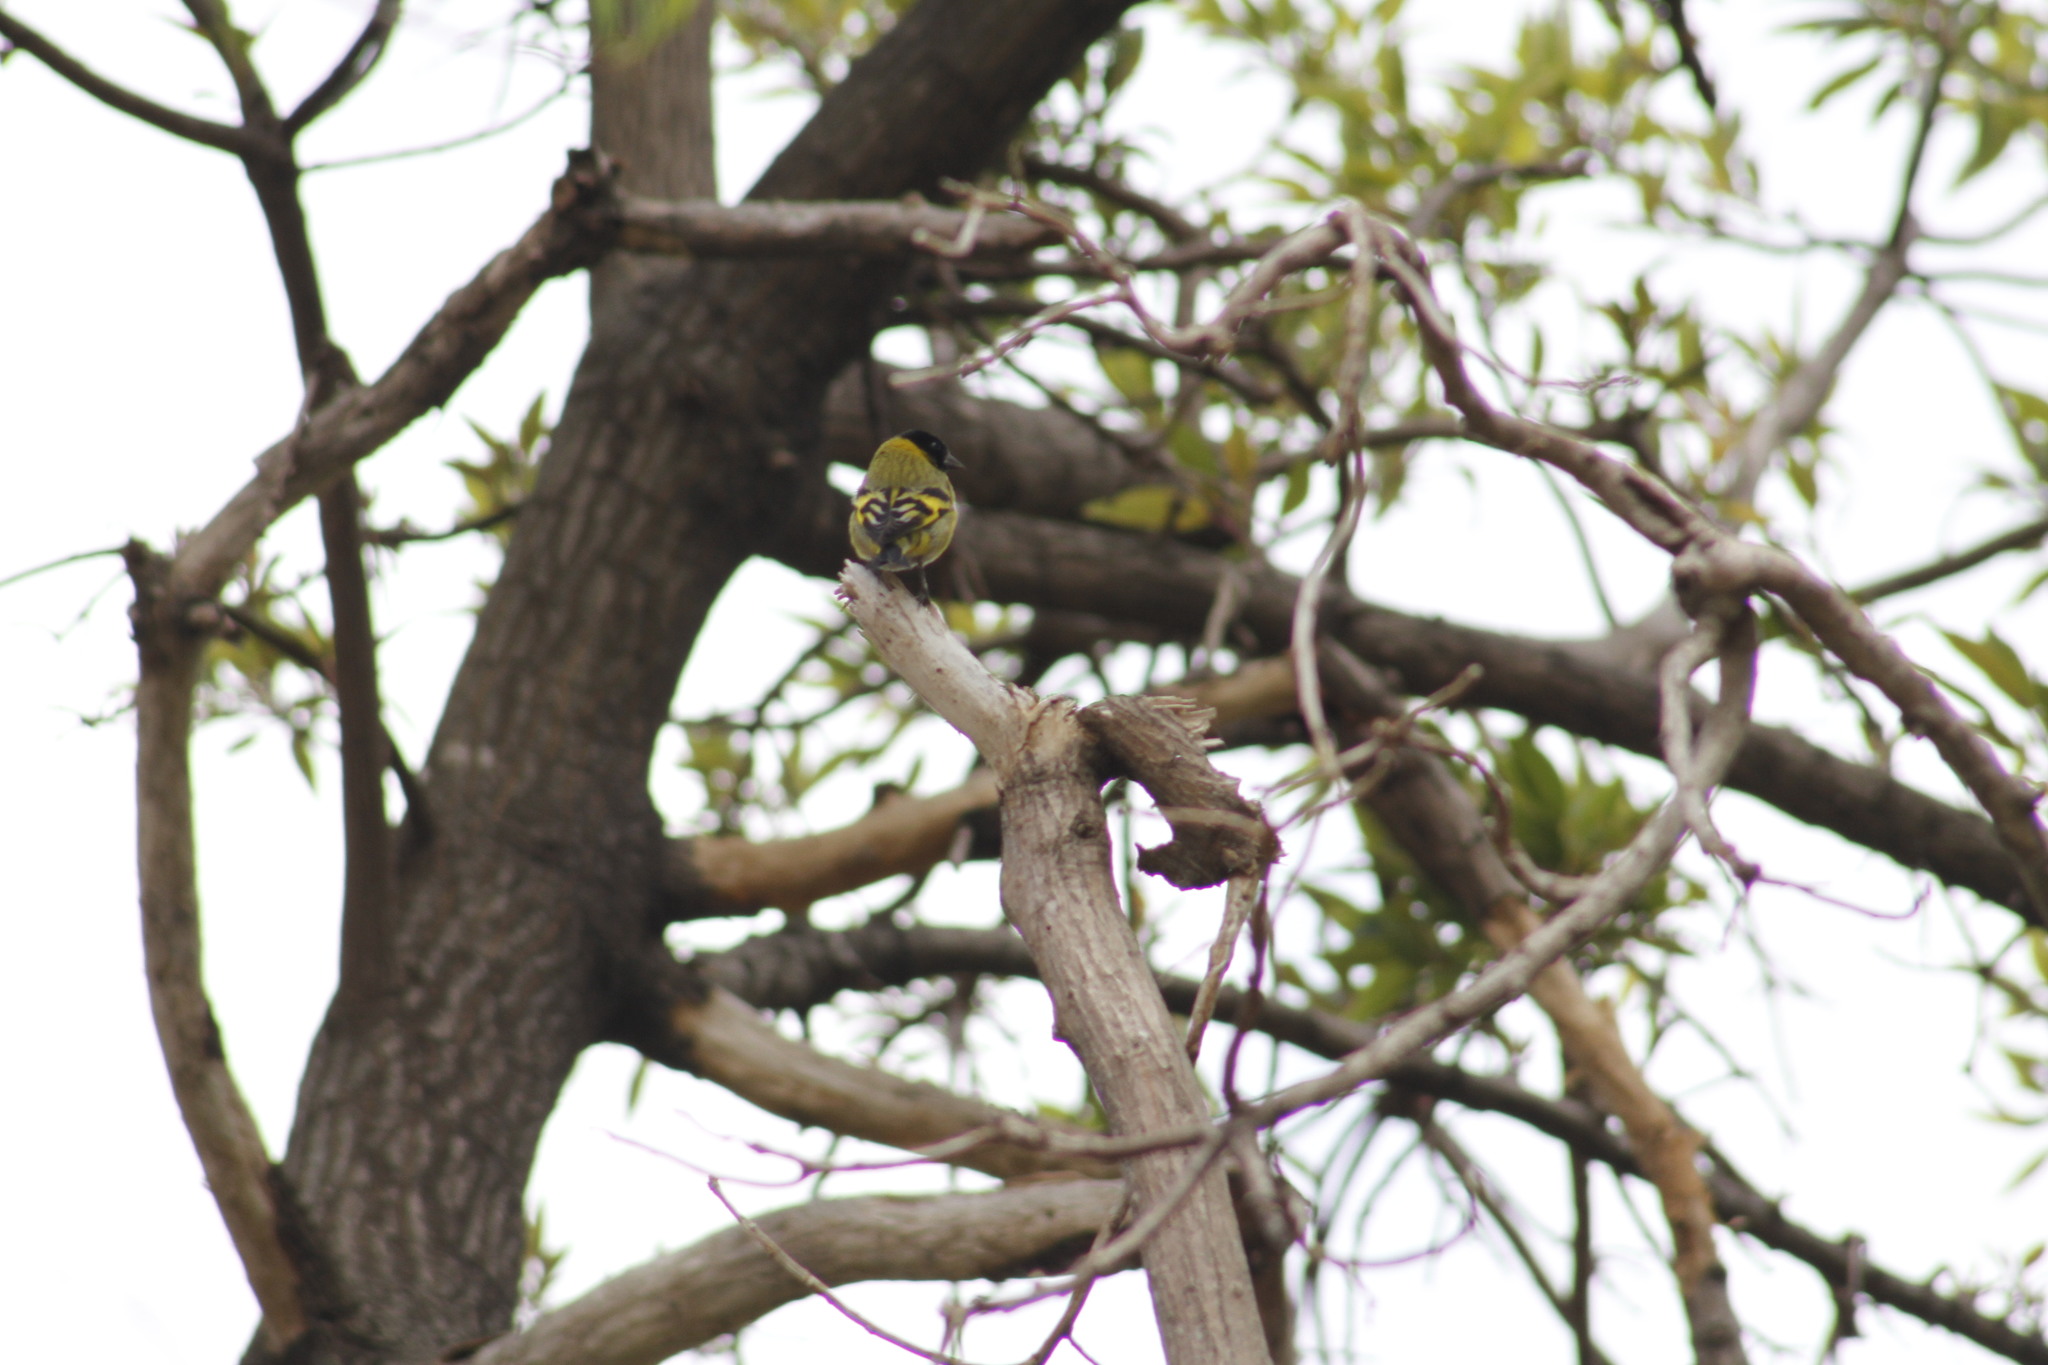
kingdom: Animalia
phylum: Chordata
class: Aves
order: Passeriformes
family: Fringillidae
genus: Spinus
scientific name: Spinus magellanicus
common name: Hooded siskin
